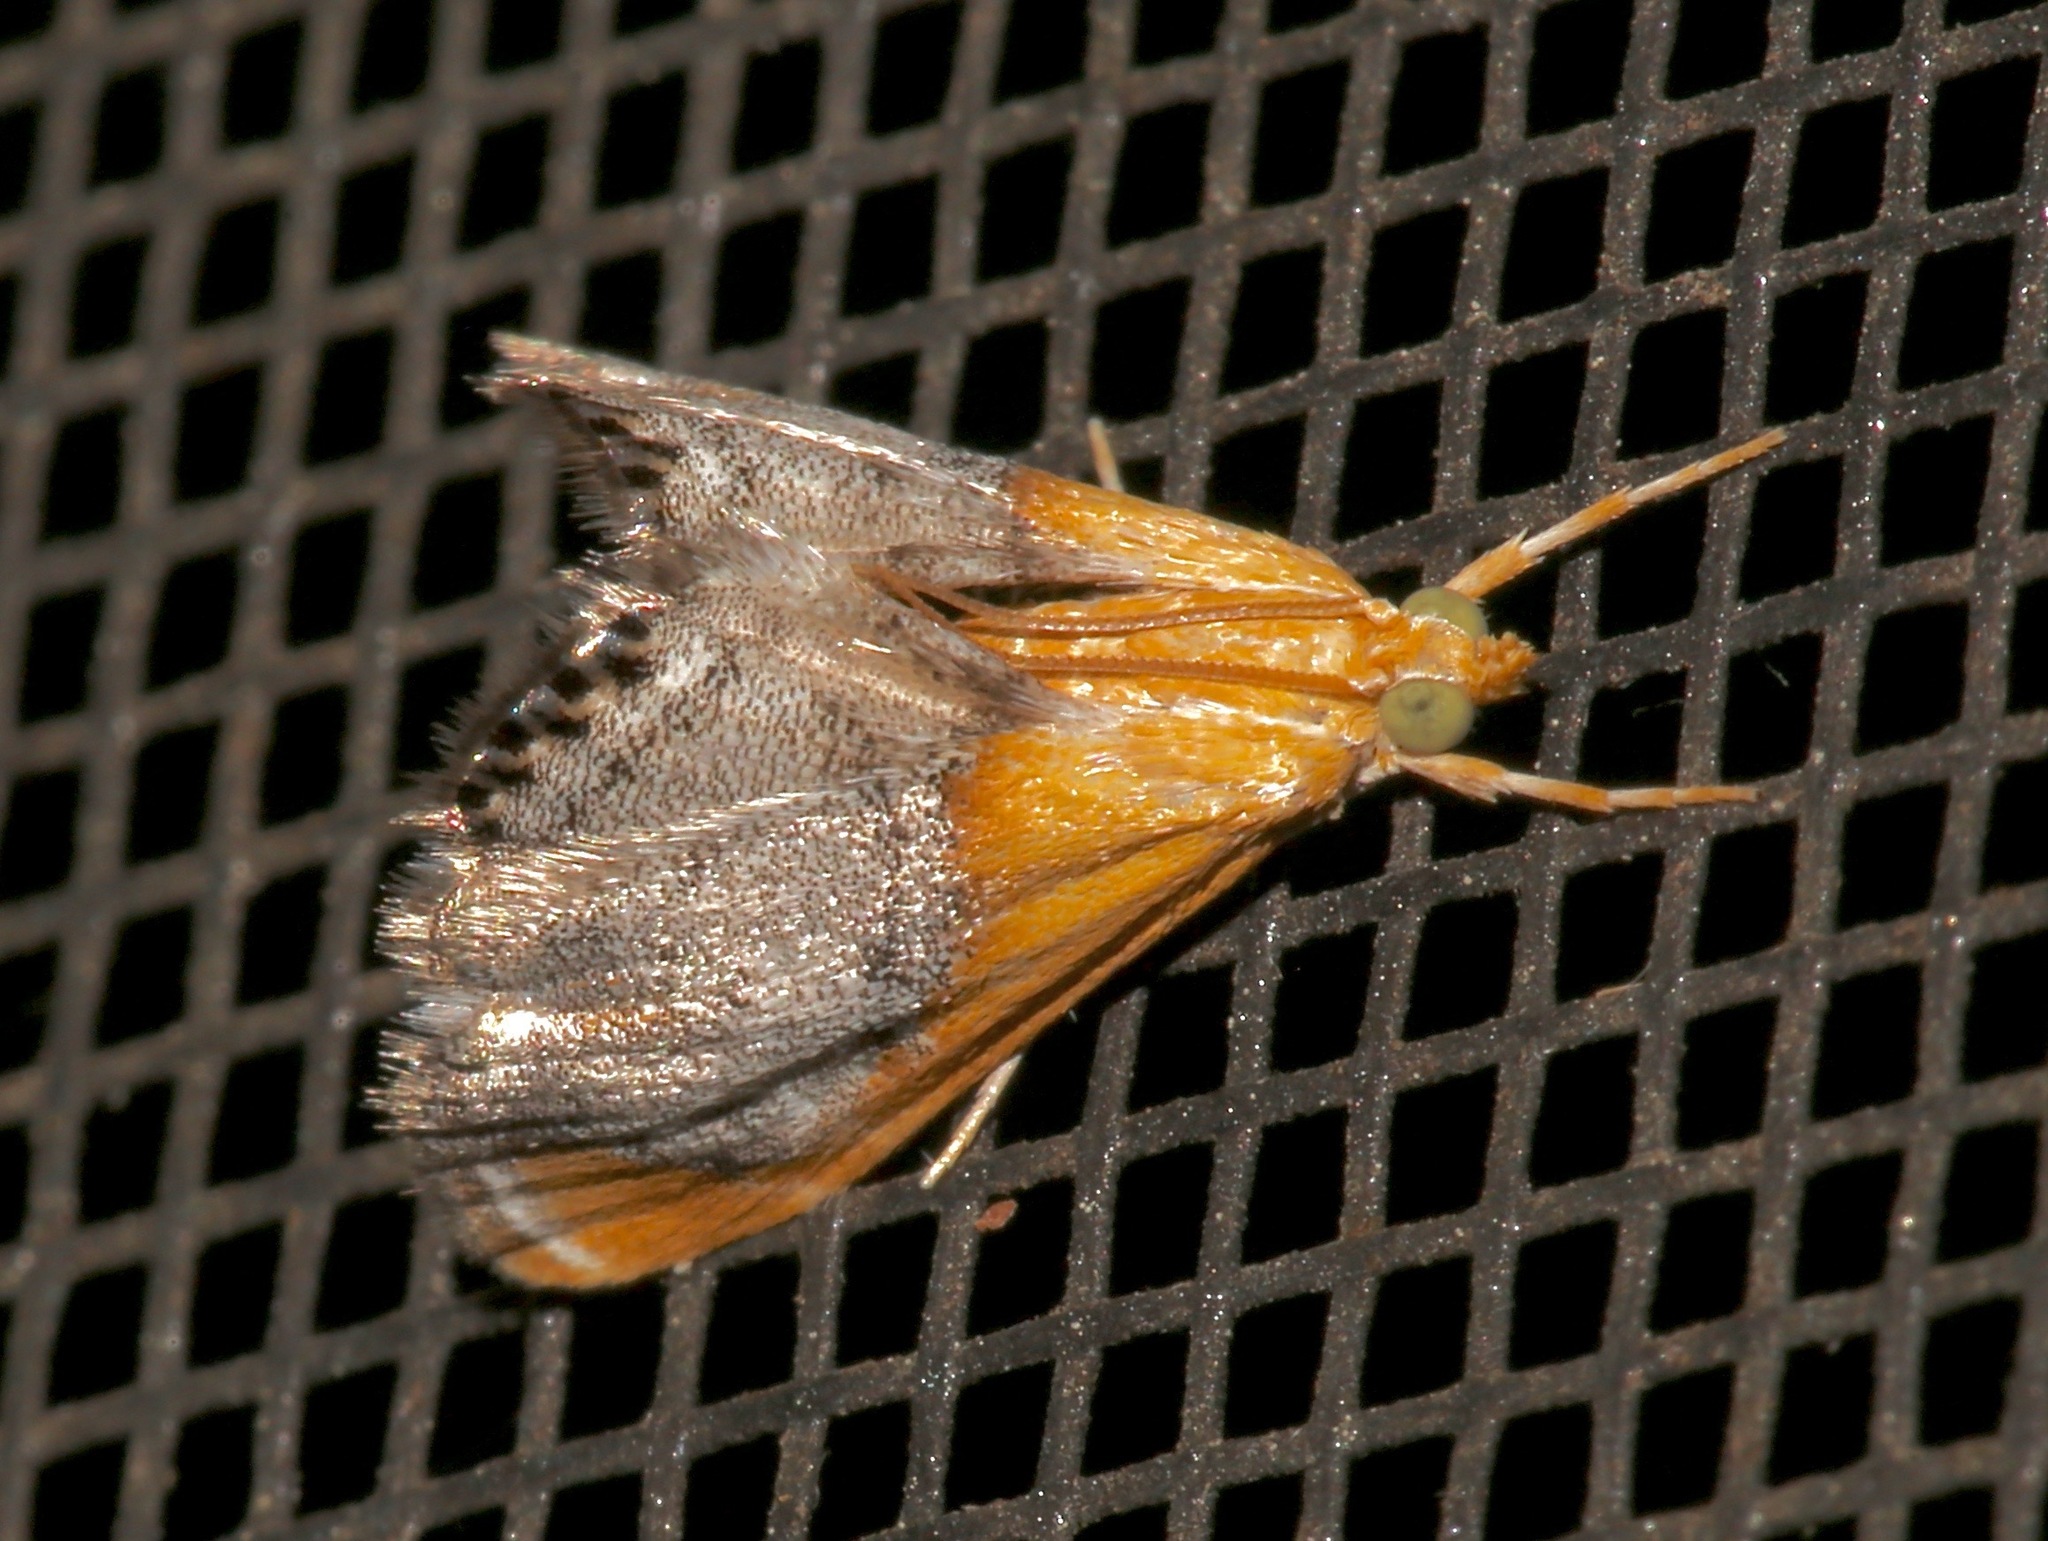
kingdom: Animalia
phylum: Arthropoda
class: Insecta
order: Lepidoptera
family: Crambidae
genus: Chalcoela
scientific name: Chalcoela iphitalis
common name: Sooty-winged chalcoela moth
